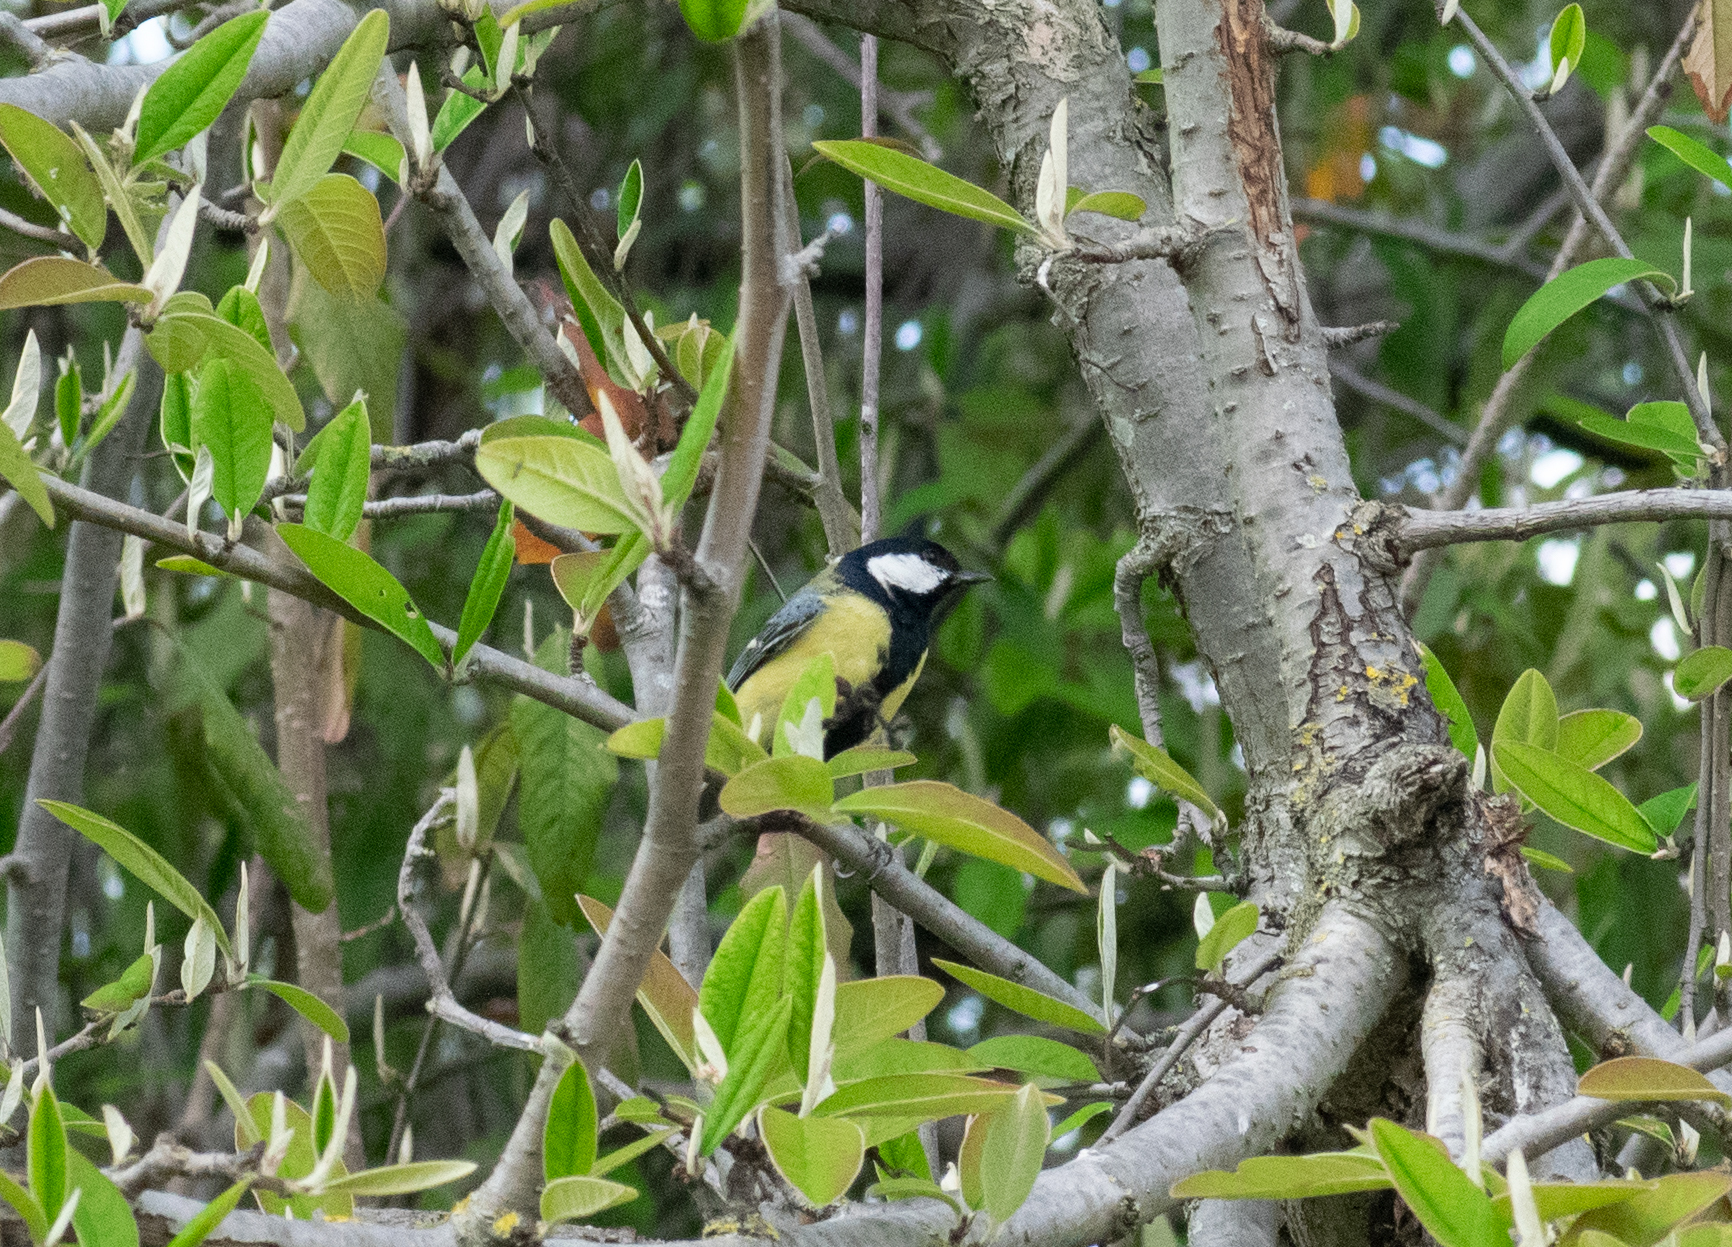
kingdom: Animalia
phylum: Chordata
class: Aves
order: Passeriformes
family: Paridae
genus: Parus
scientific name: Parus major
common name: Great tit
